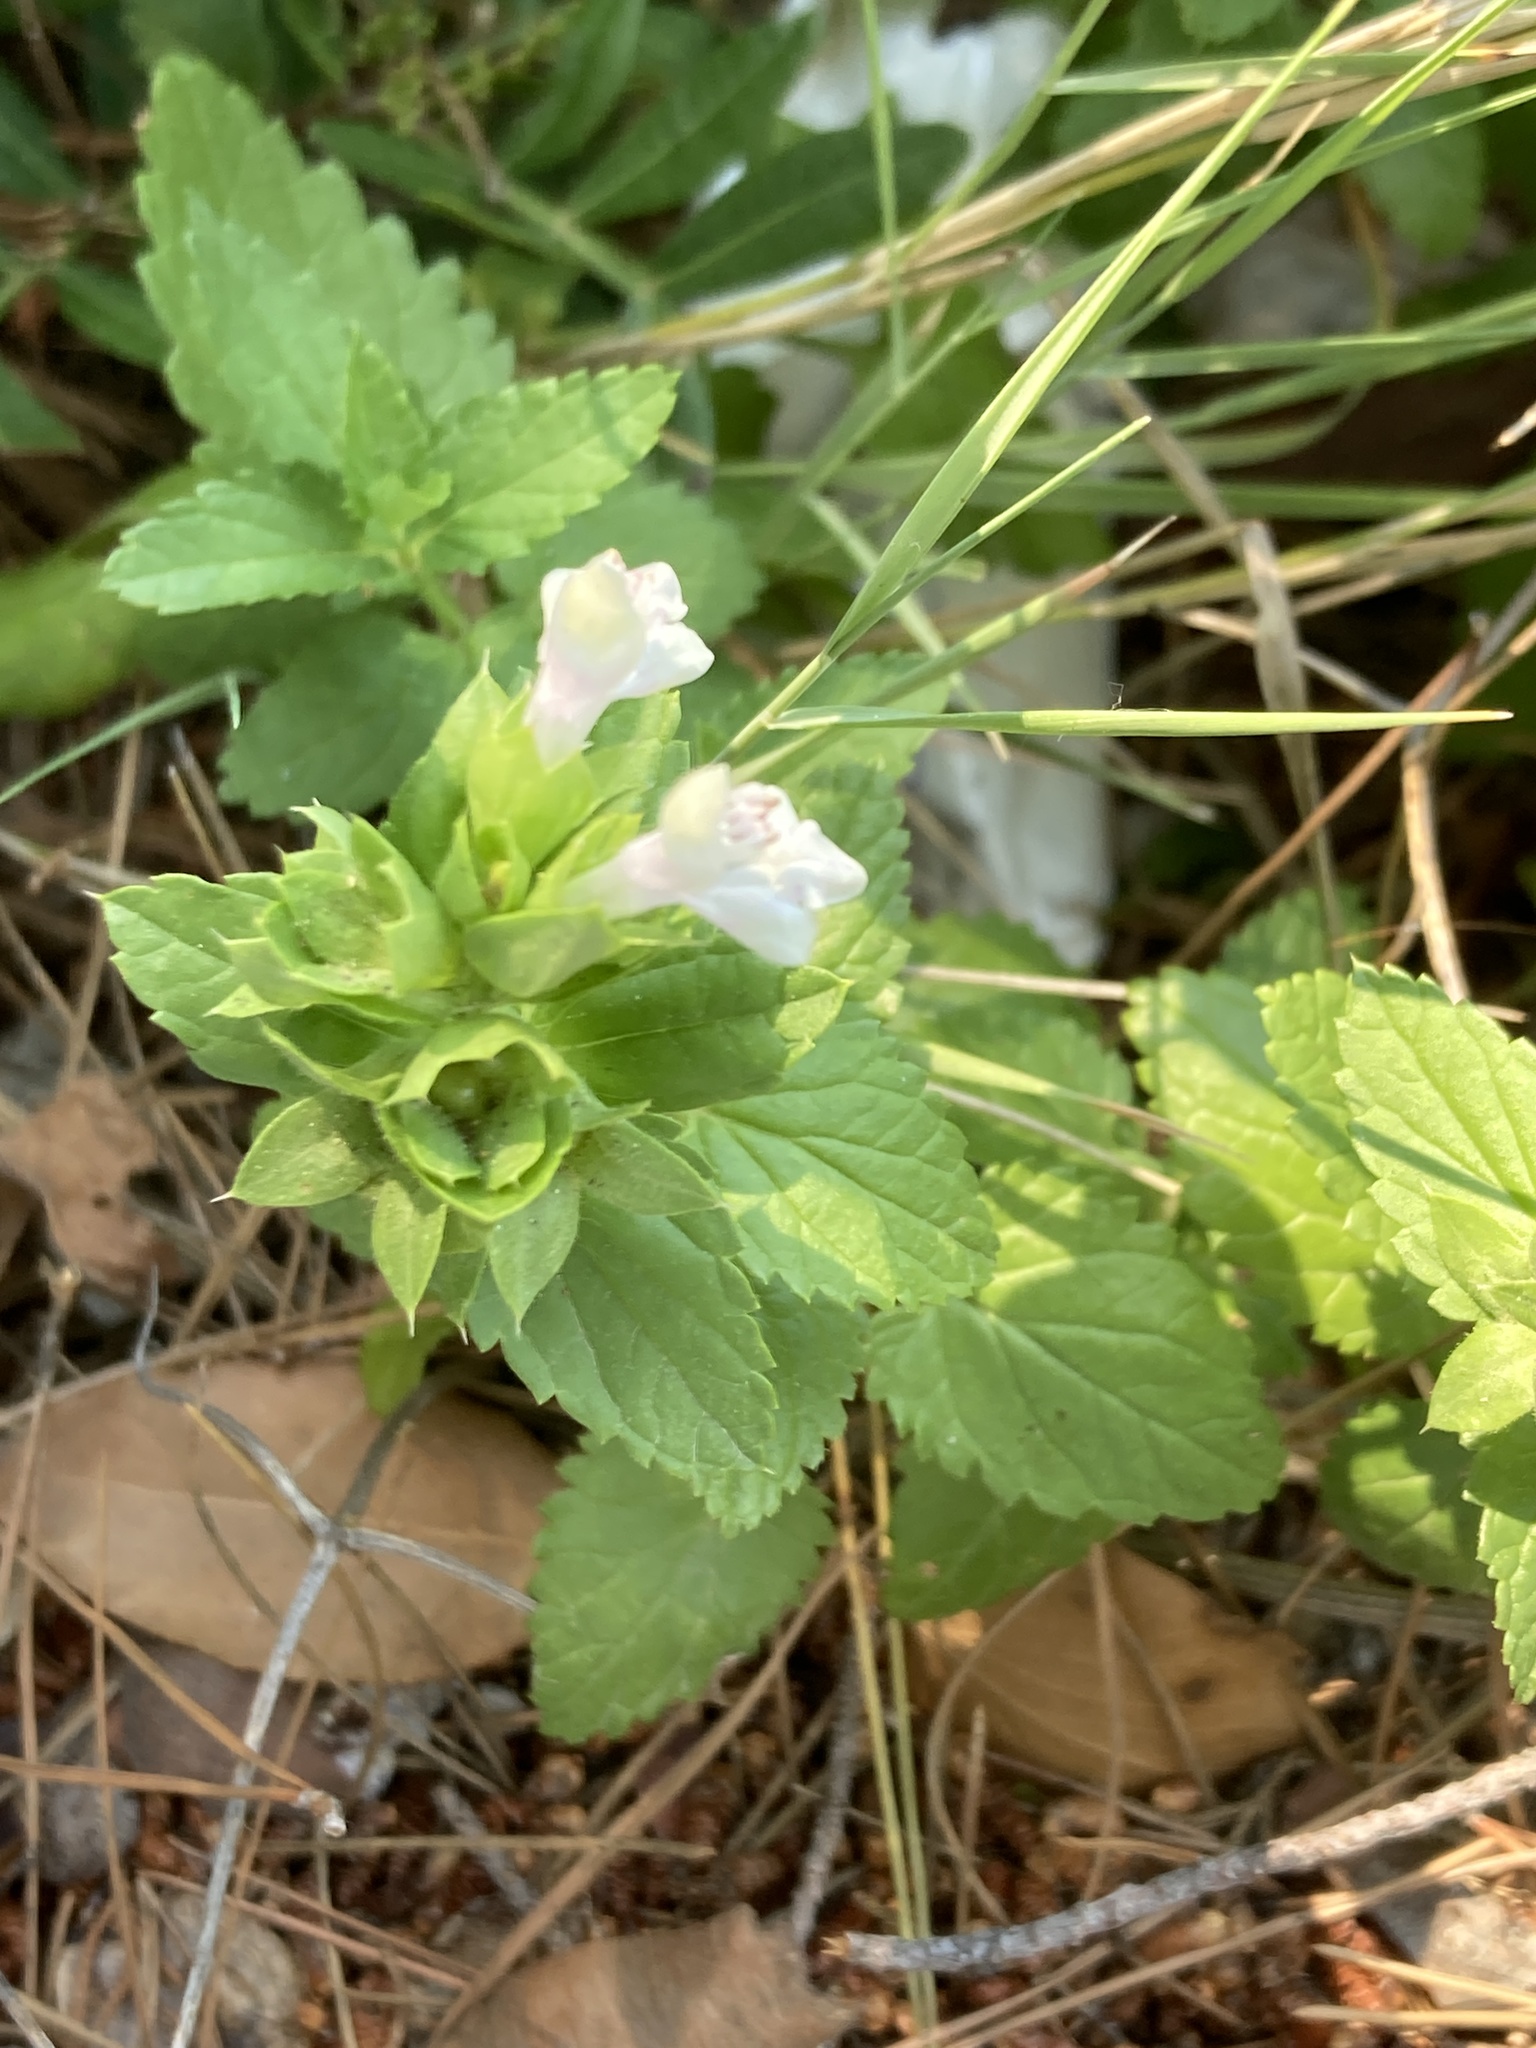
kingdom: Plantae
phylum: Tracheophyta
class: Magnoliopsida
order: Lamiales
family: Lamiaceae
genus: Prasium
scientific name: Prasium majus
